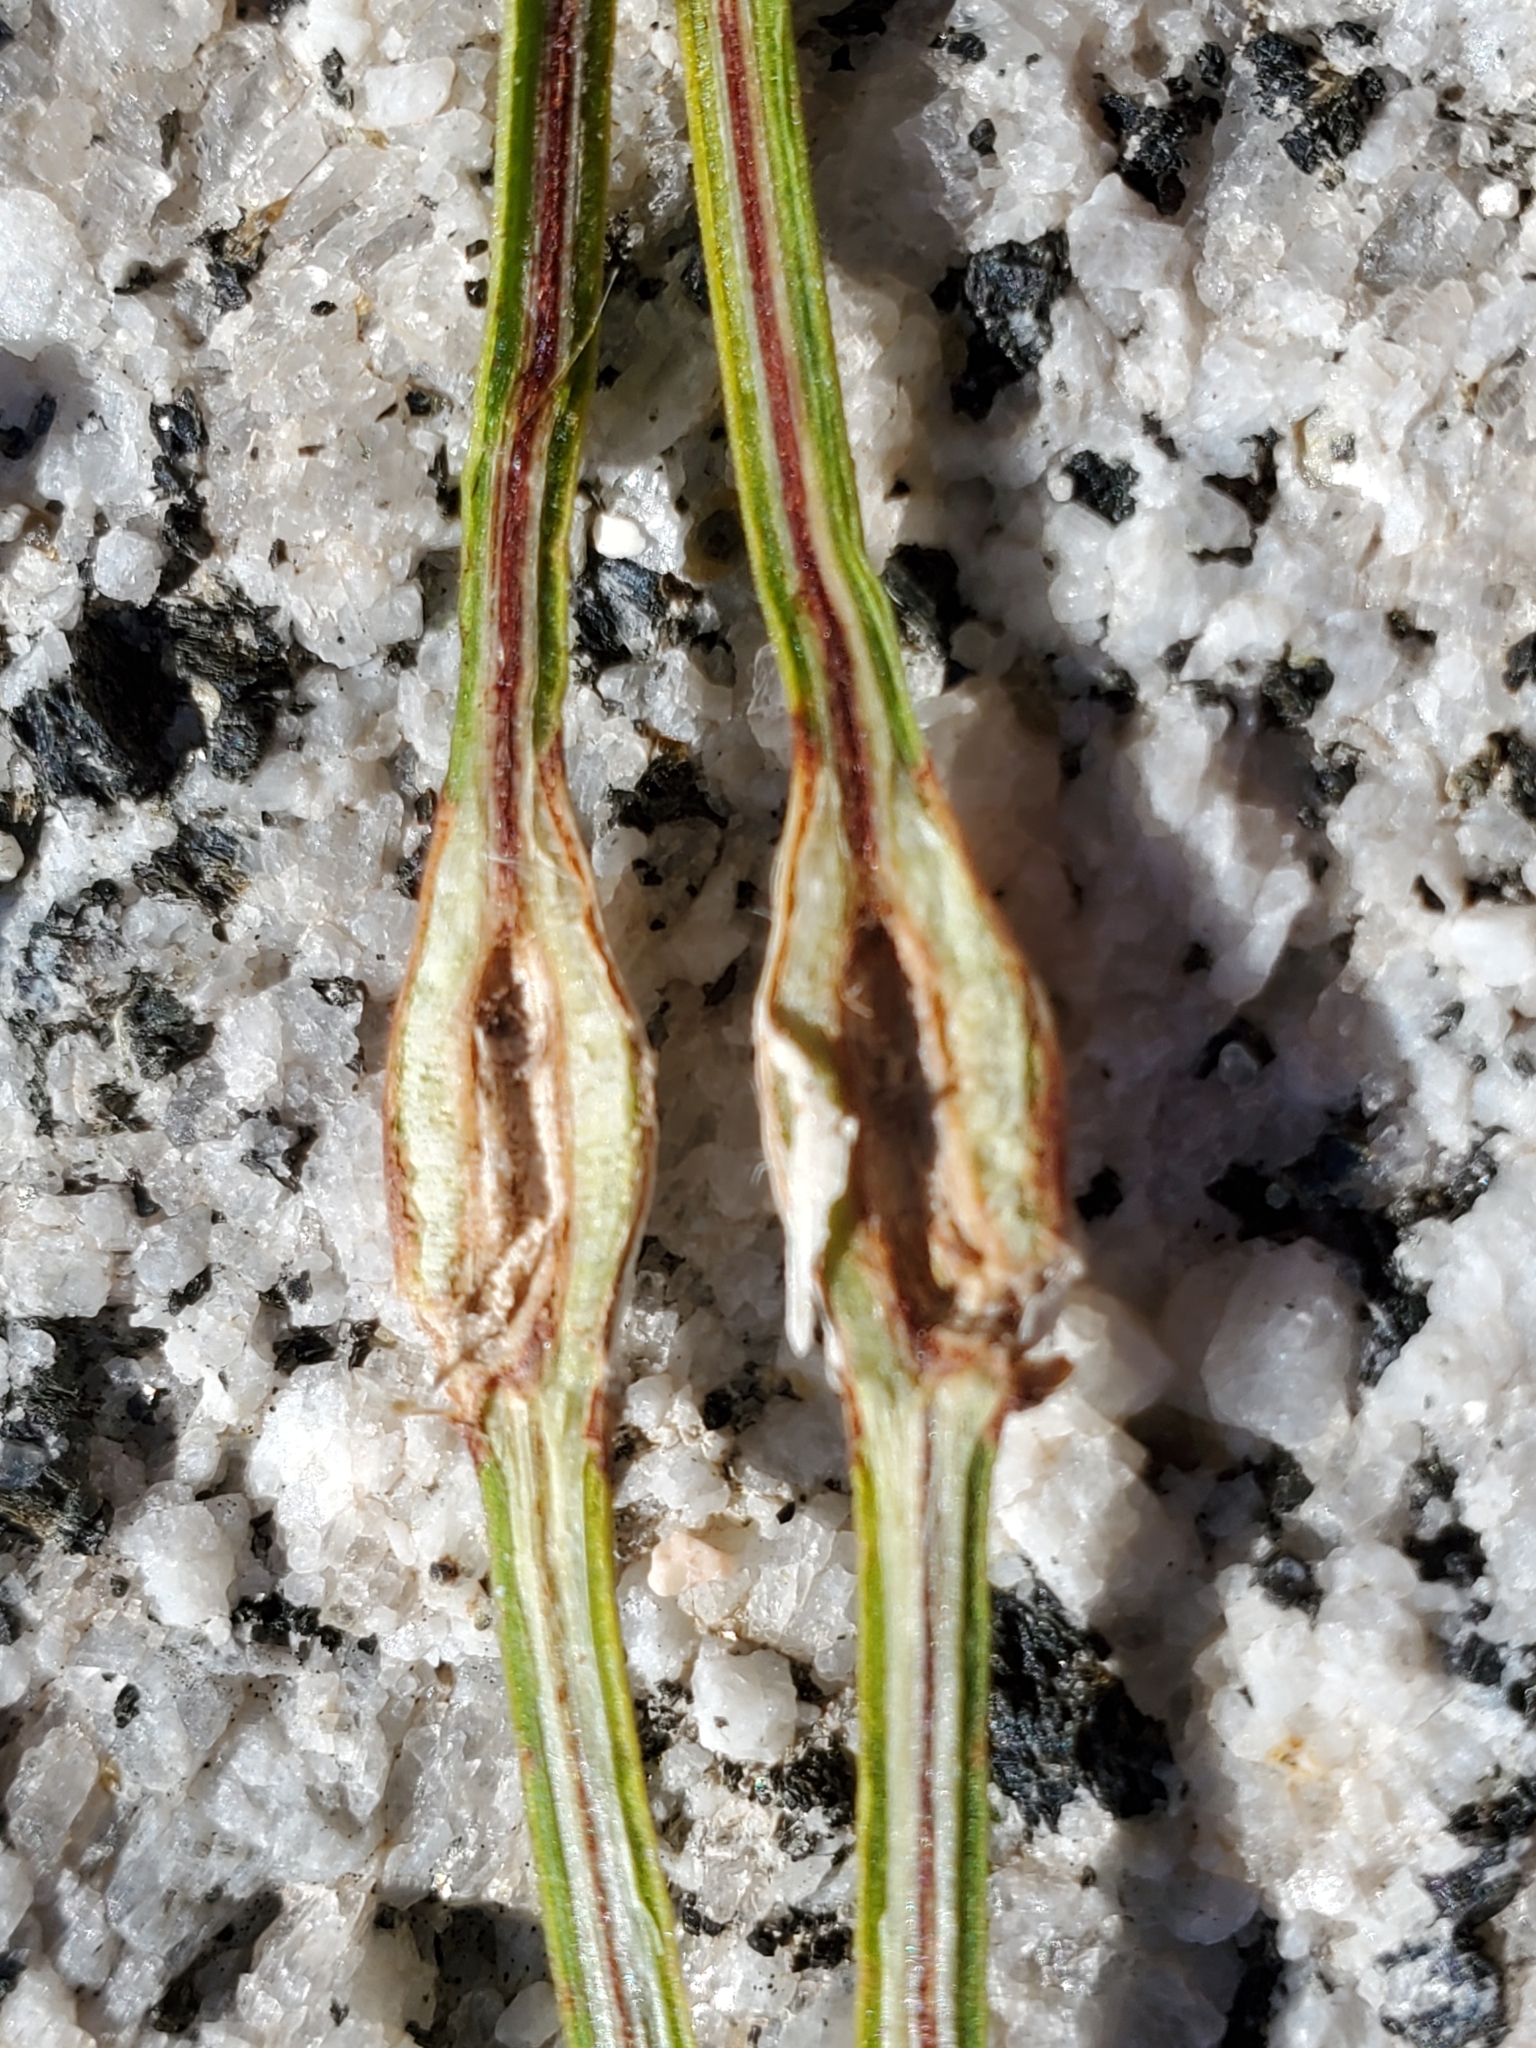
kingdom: Animalia
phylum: Arthropoda
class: Insecta
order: Diptera
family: Cecidomyiidae
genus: Lasioptera
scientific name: Lasioptera ephedrae
